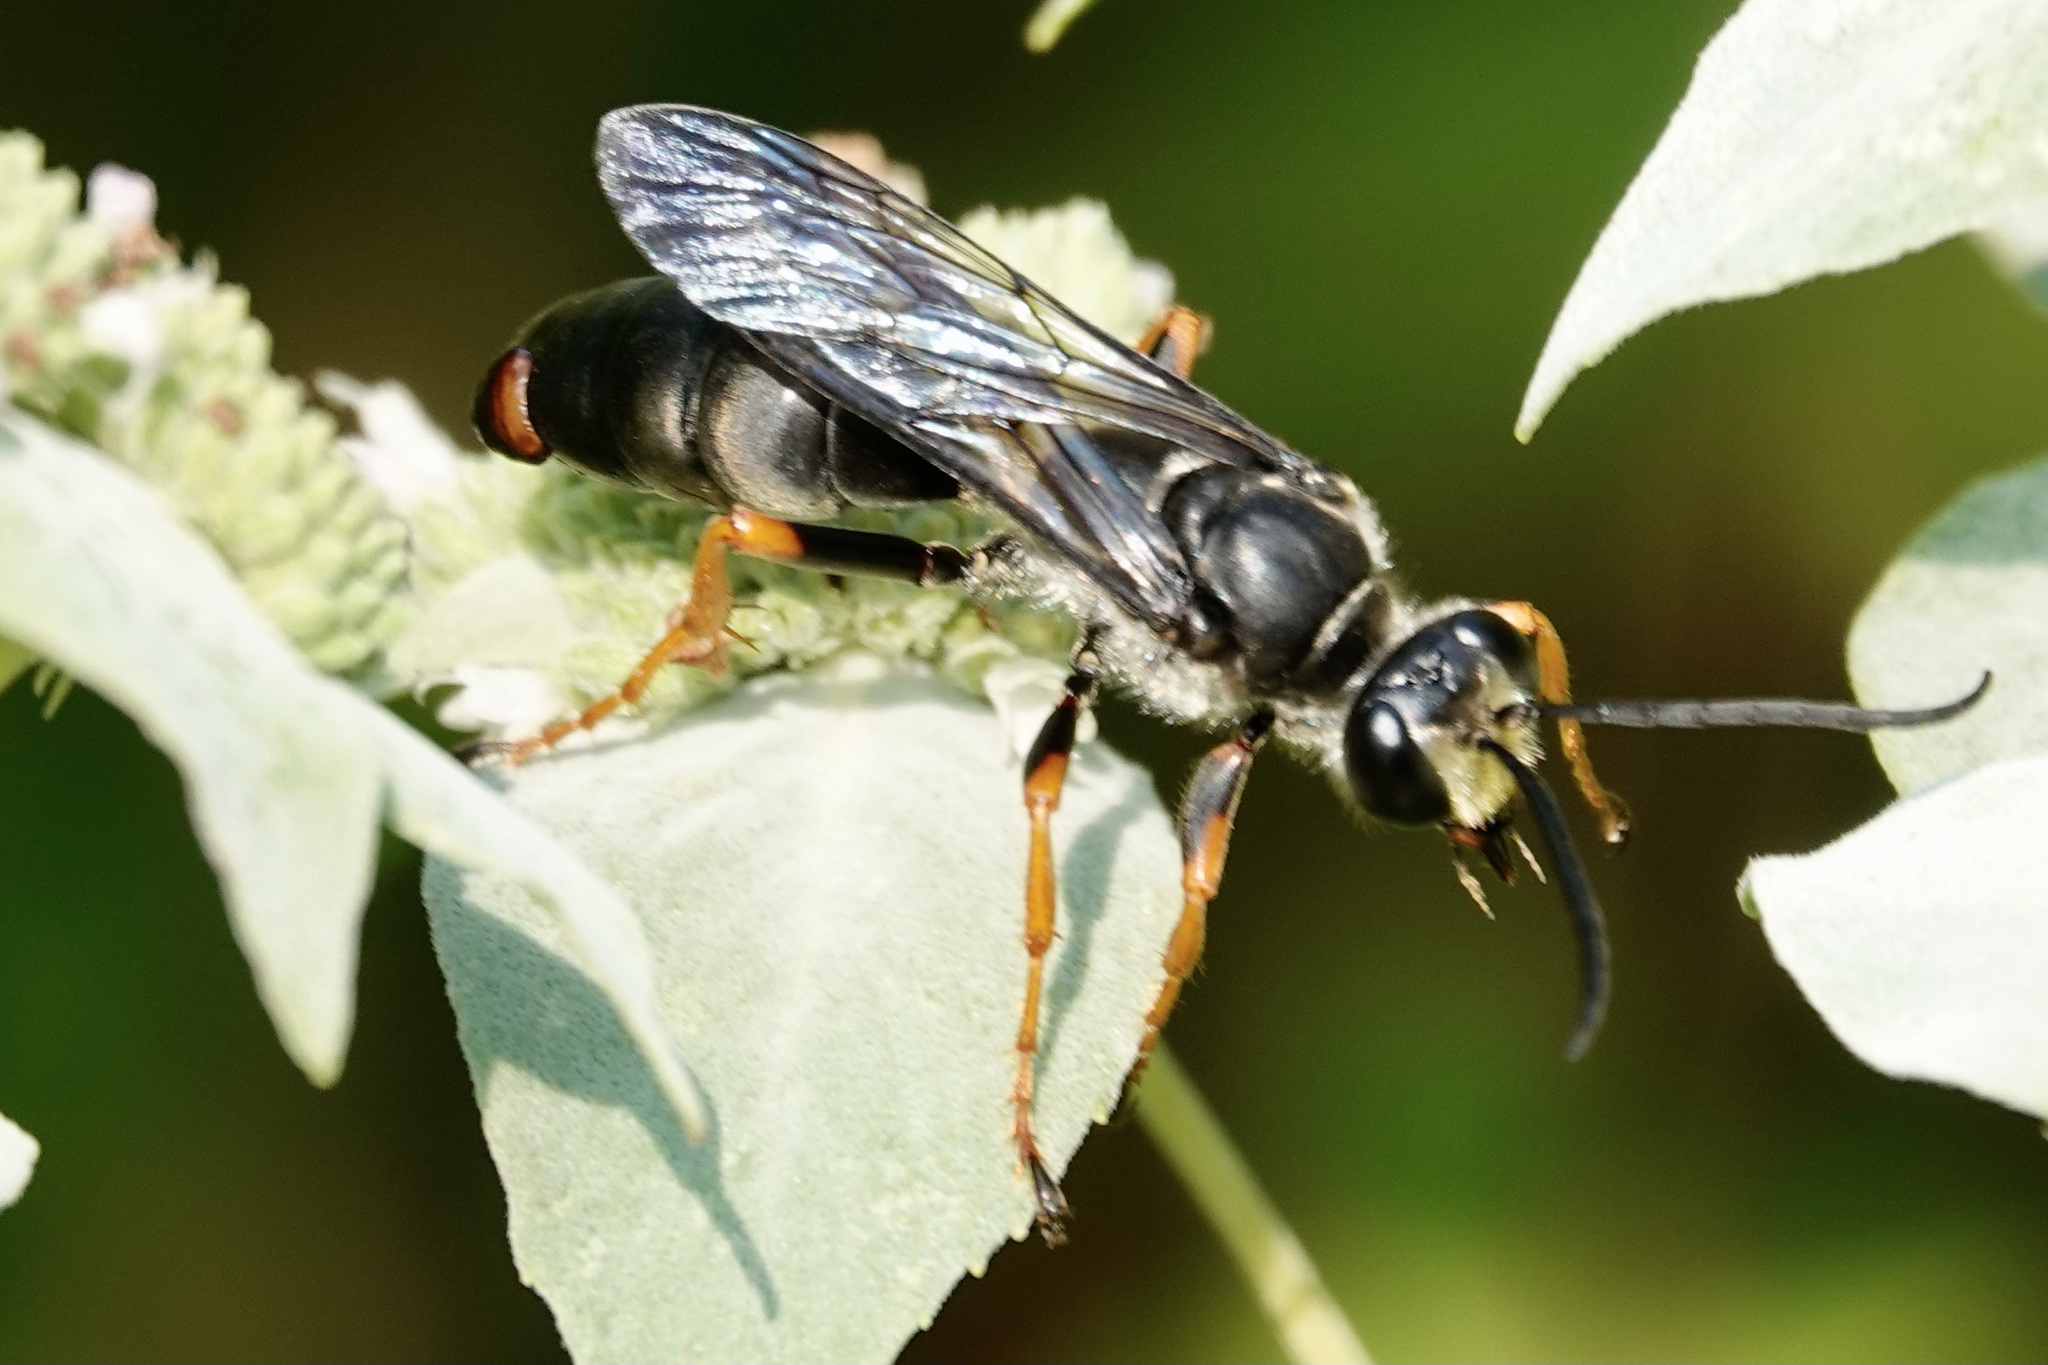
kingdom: Animalia
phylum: Arthropoda
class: Insecta
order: Strepsiptera
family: Xenidae
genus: Paraxenos
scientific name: Paraxenos Eupathocera westwoodii
